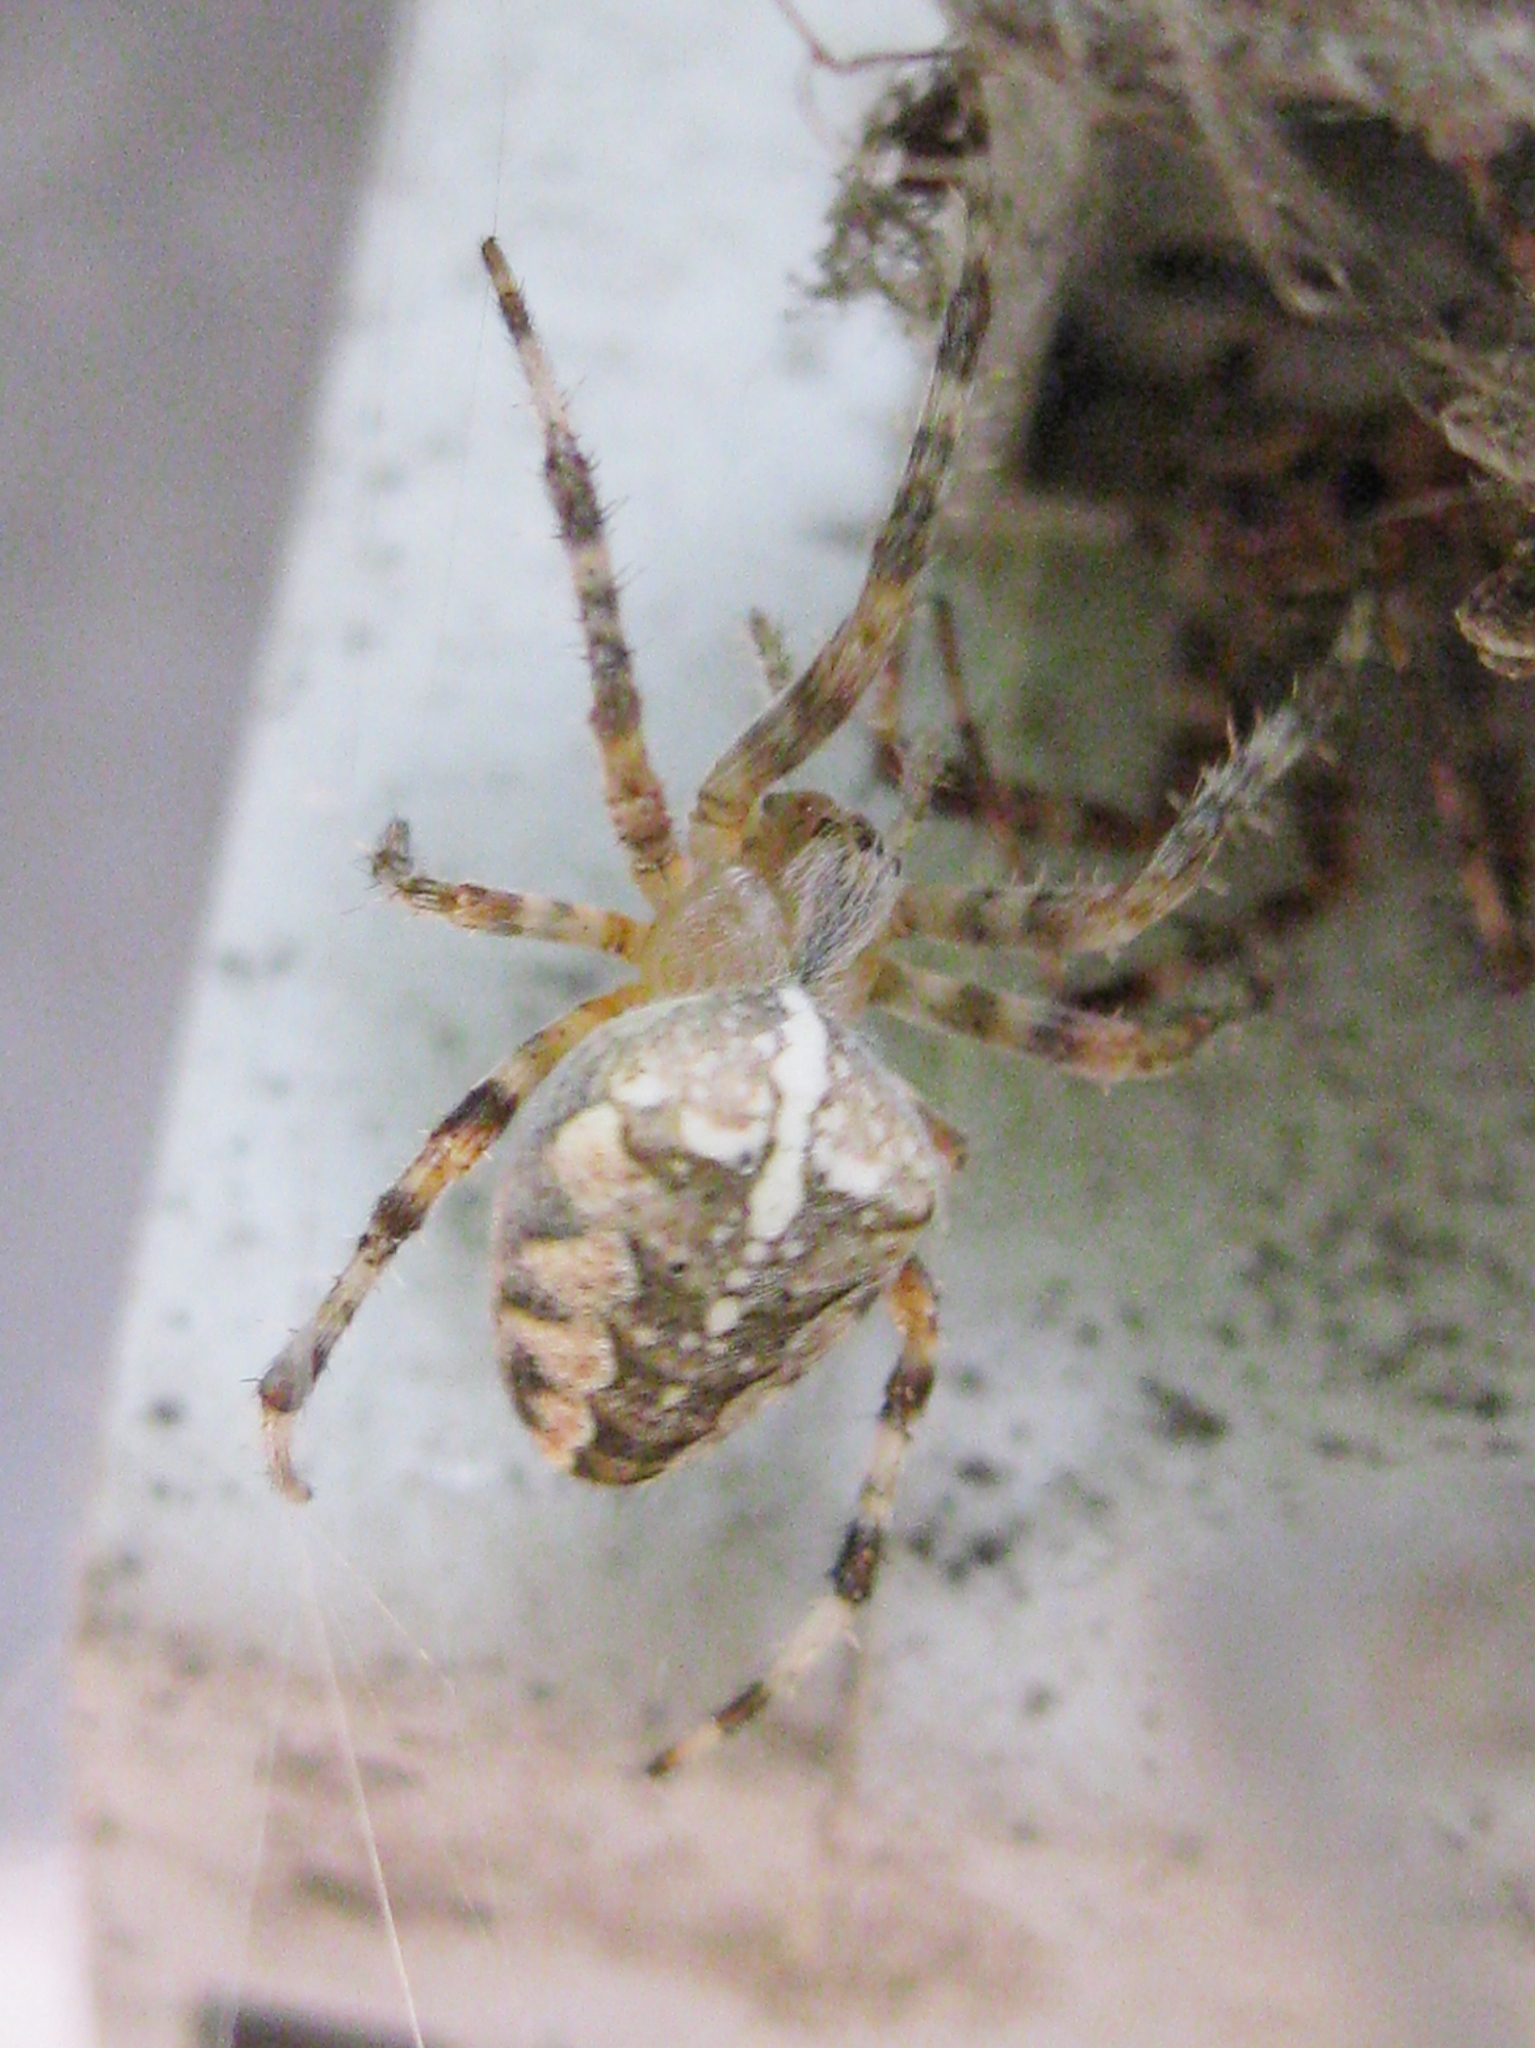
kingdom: Animalia
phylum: Arthropoda
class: Arachnida
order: Araneae
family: Araneidae
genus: Araneus
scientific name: Araneus diadematus
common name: Cross orbweaver
